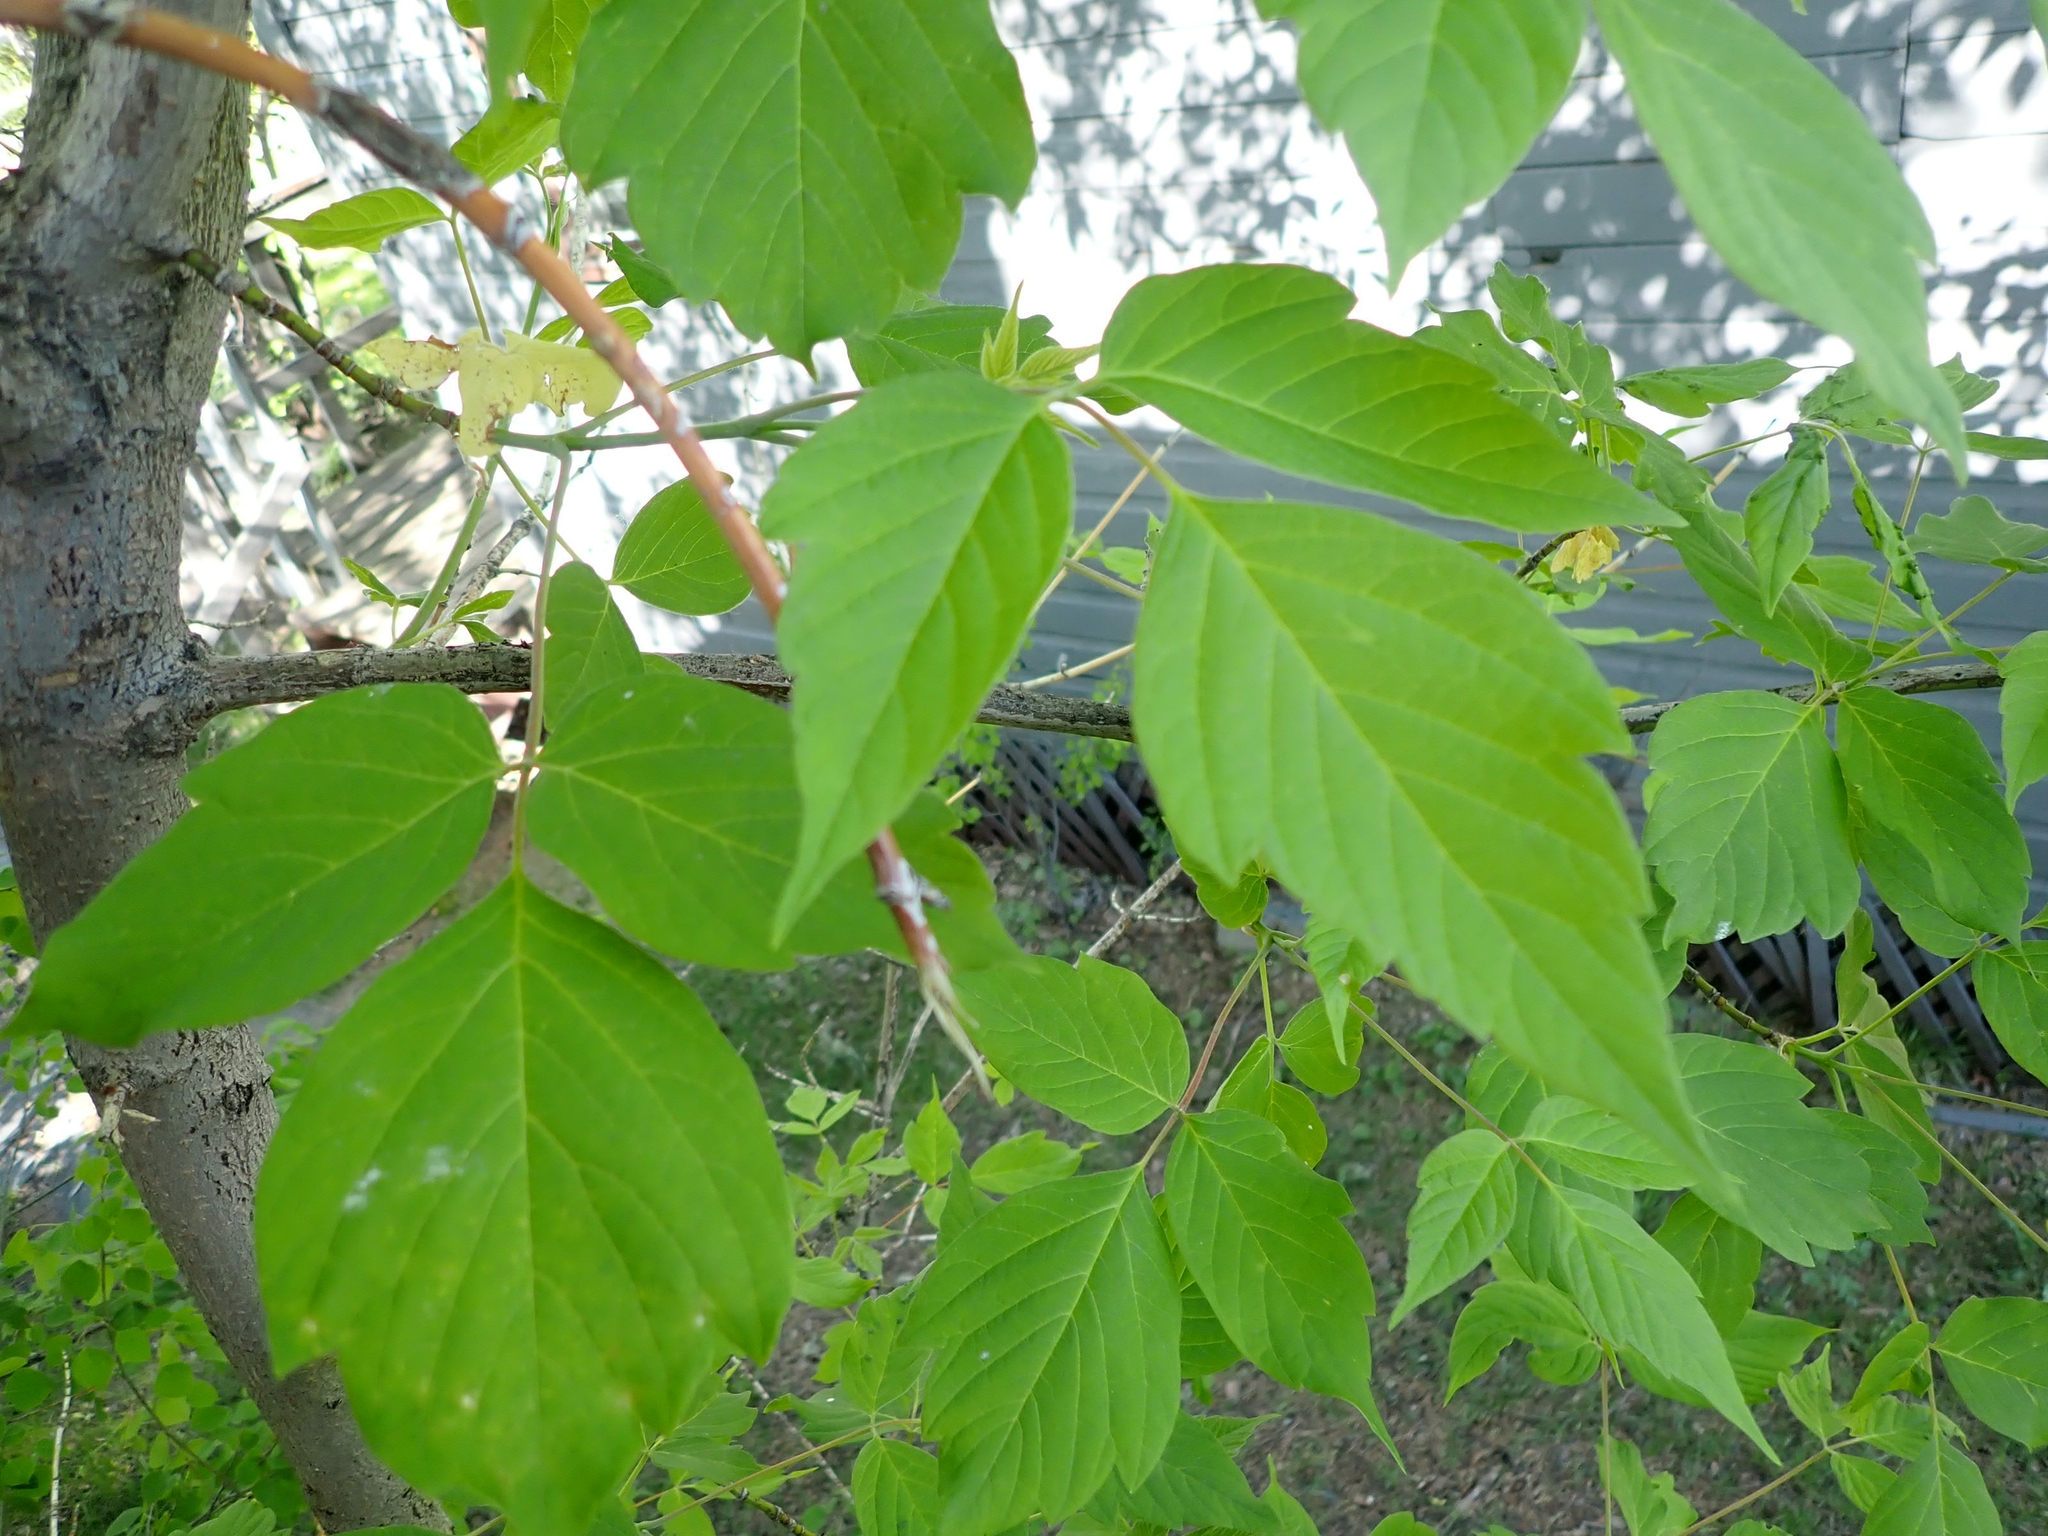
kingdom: Plantae
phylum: Tracheophyta
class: Magnoliopsida
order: Sapindales
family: Sapindaceae
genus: Acer
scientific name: Acer negundo
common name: Ashleaf maple
